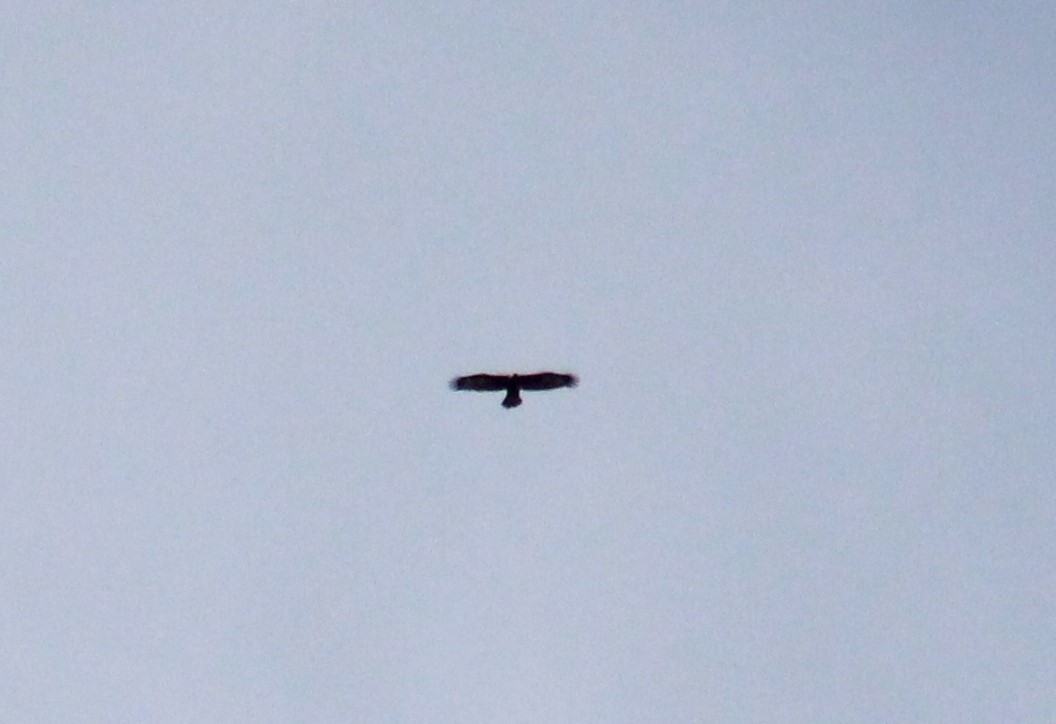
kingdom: Animalia
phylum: Chordata
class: Aves
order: Accipitriformes
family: Accipitridae
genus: Aquila
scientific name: Aquila chrysaetos
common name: Golden eagle
